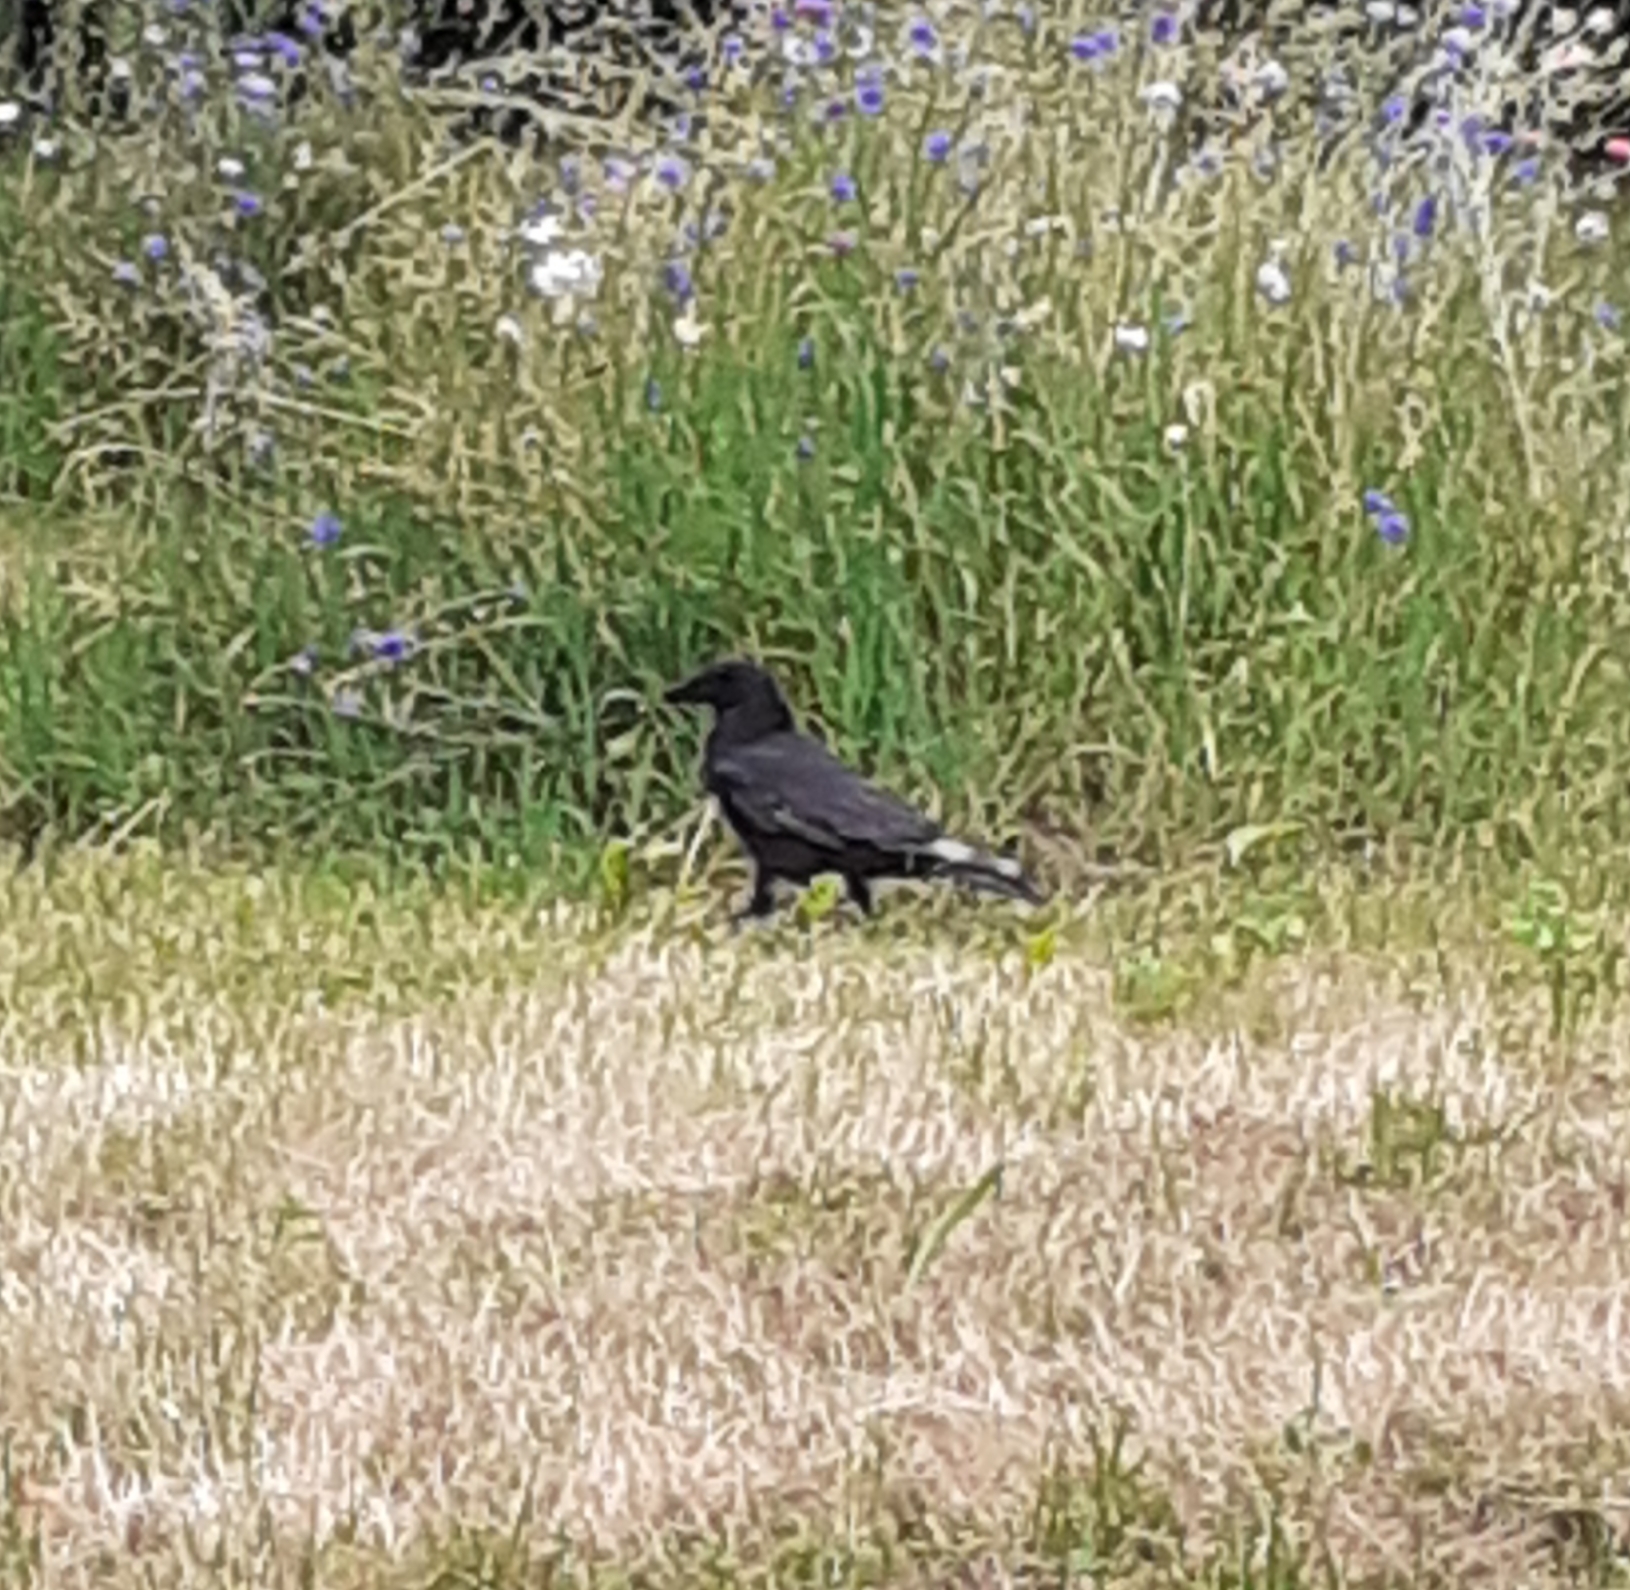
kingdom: Animalia
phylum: Chordata
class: Aves
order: Passeriformes
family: Corvidae
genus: Corvus
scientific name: Corvus corone
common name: Carrion crow
